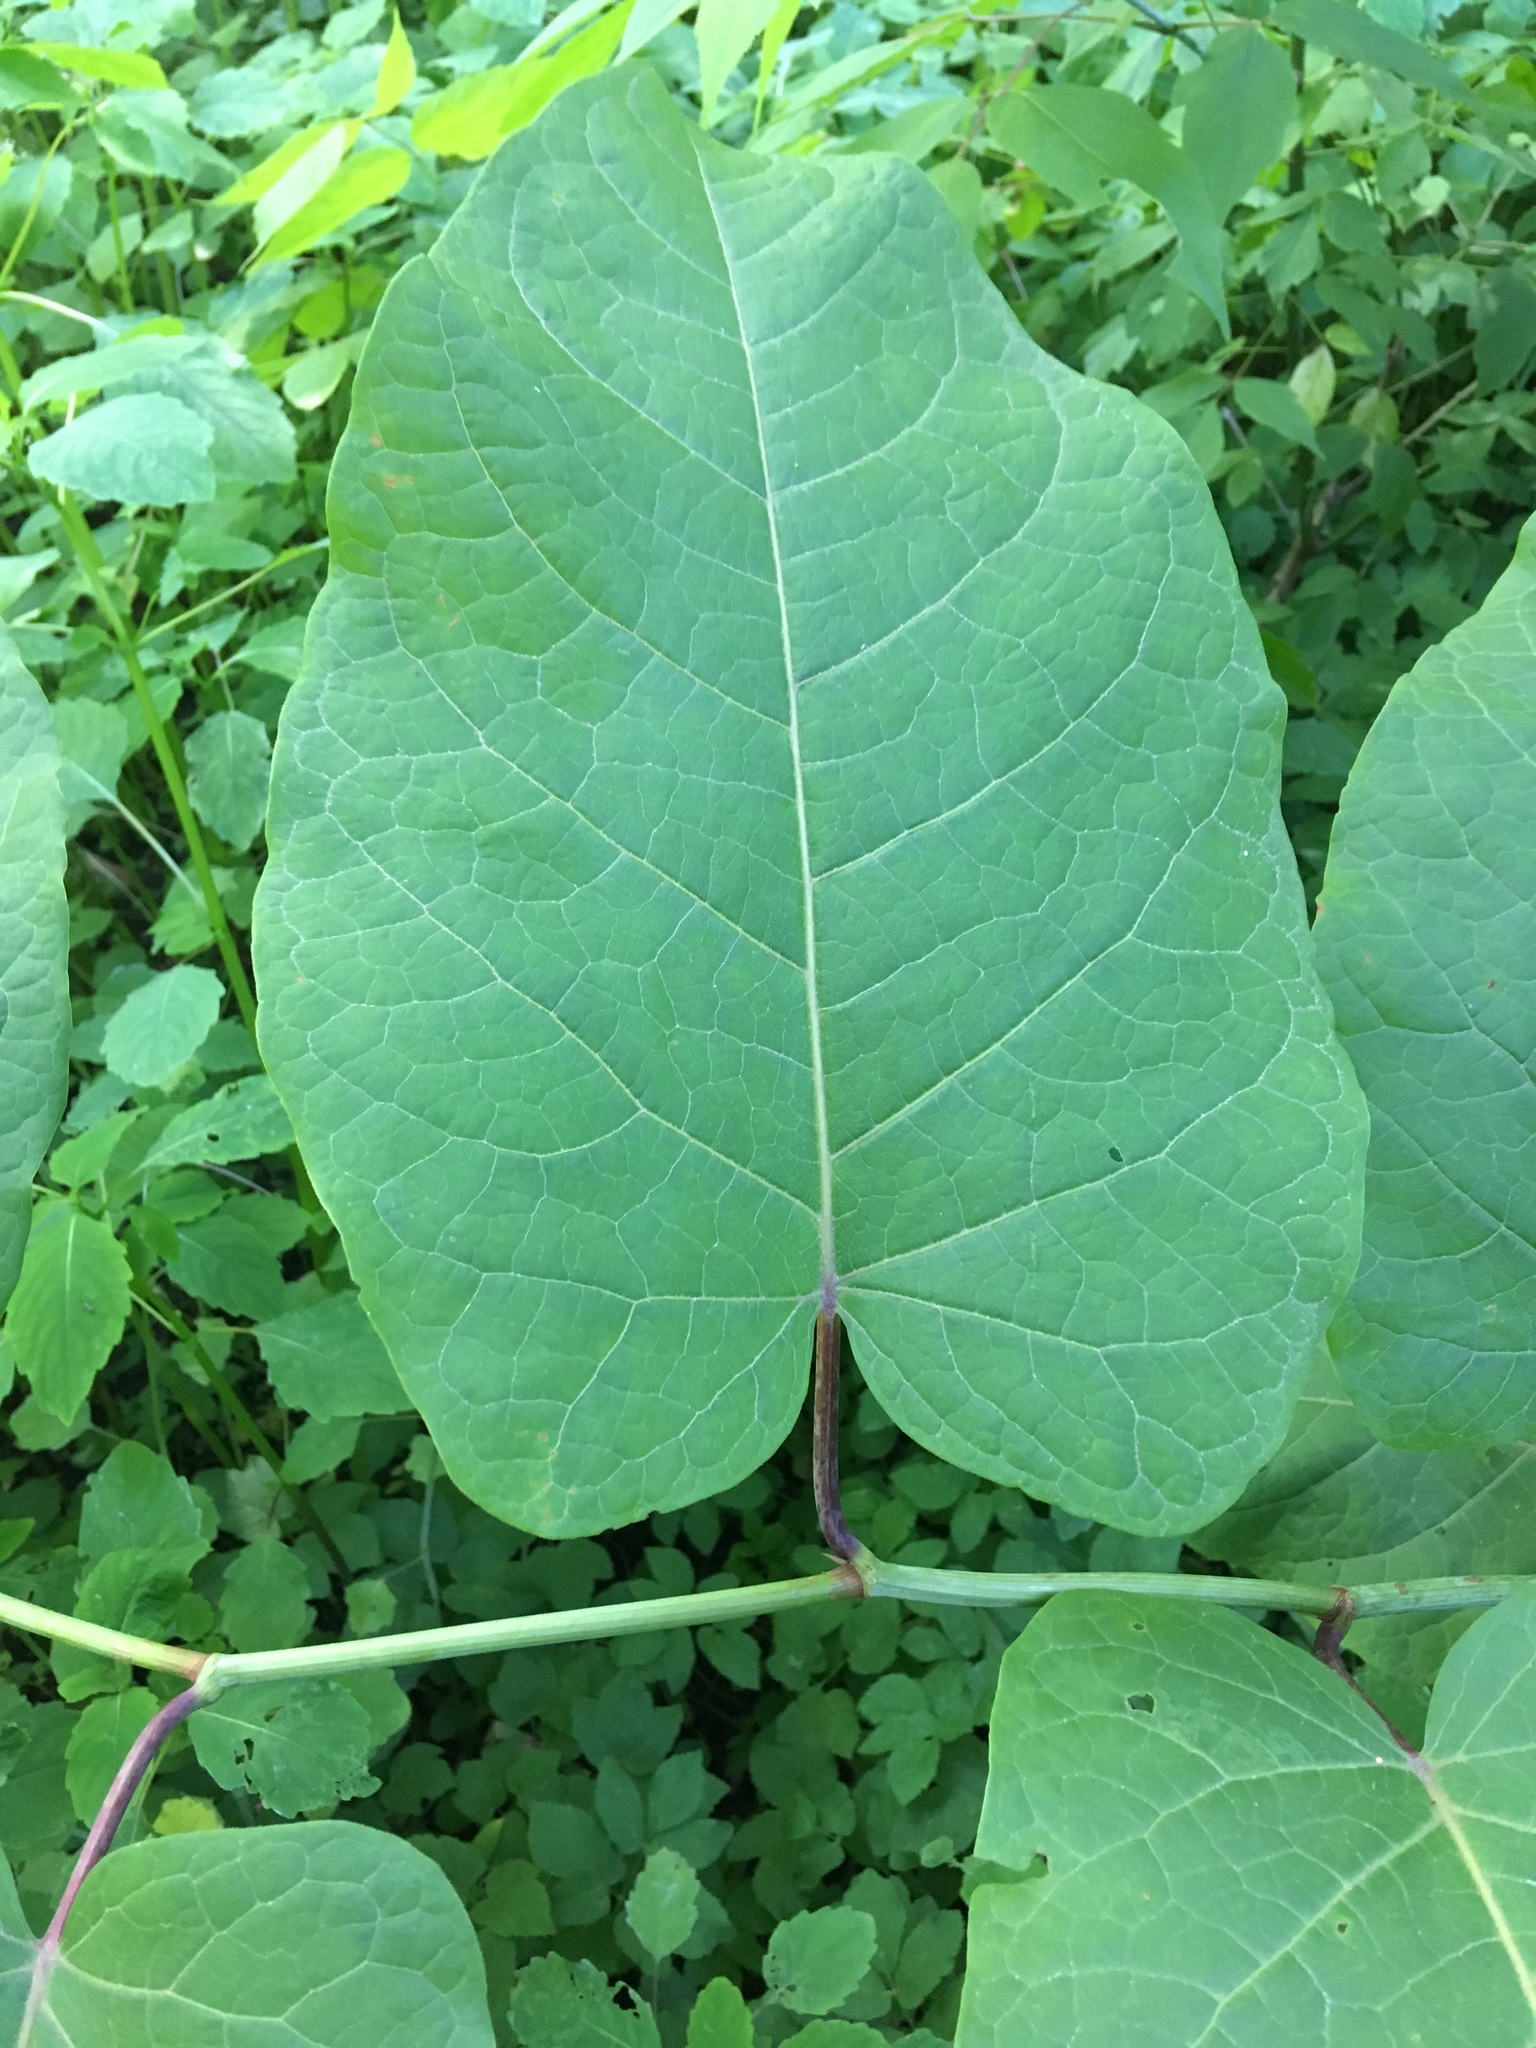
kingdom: Plantae
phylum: Tracheophyta
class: Magnoliopsida
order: Caryophyllales
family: Polygonaceae
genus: Reynoutria
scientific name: Reynoutria sachalinensis
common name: Giant knotweed
